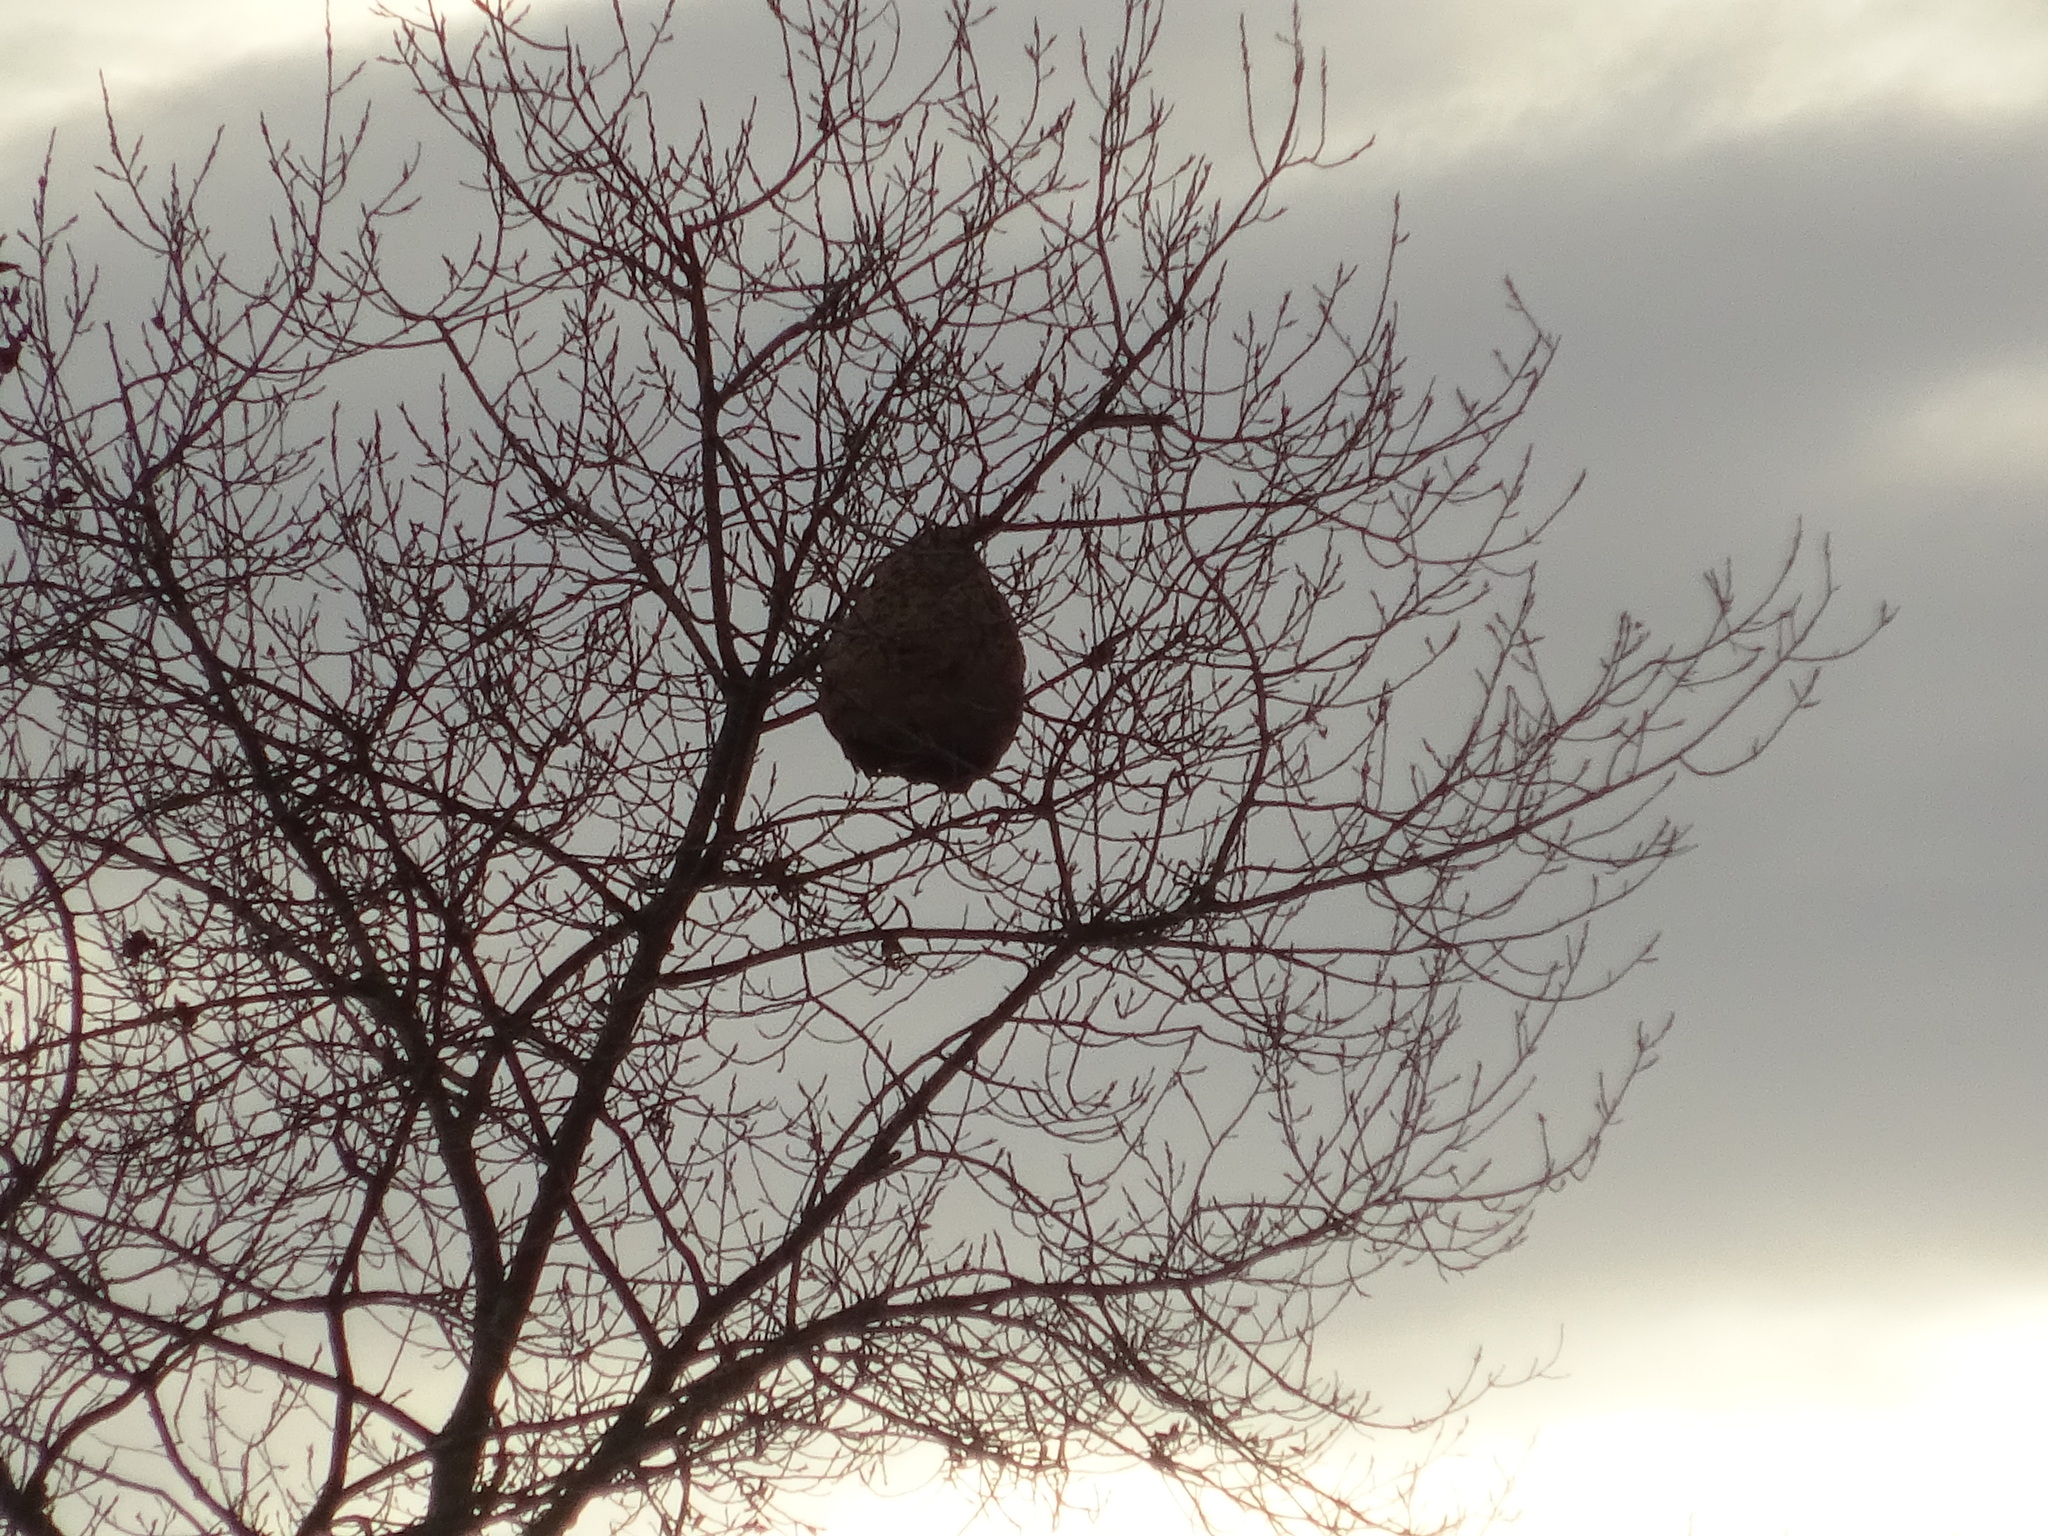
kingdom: Animalia
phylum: Arthropoda
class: Insecta
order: Hymenoptera
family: Vespidae
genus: Vespa
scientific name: Vespa velutina
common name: Asian hornet
